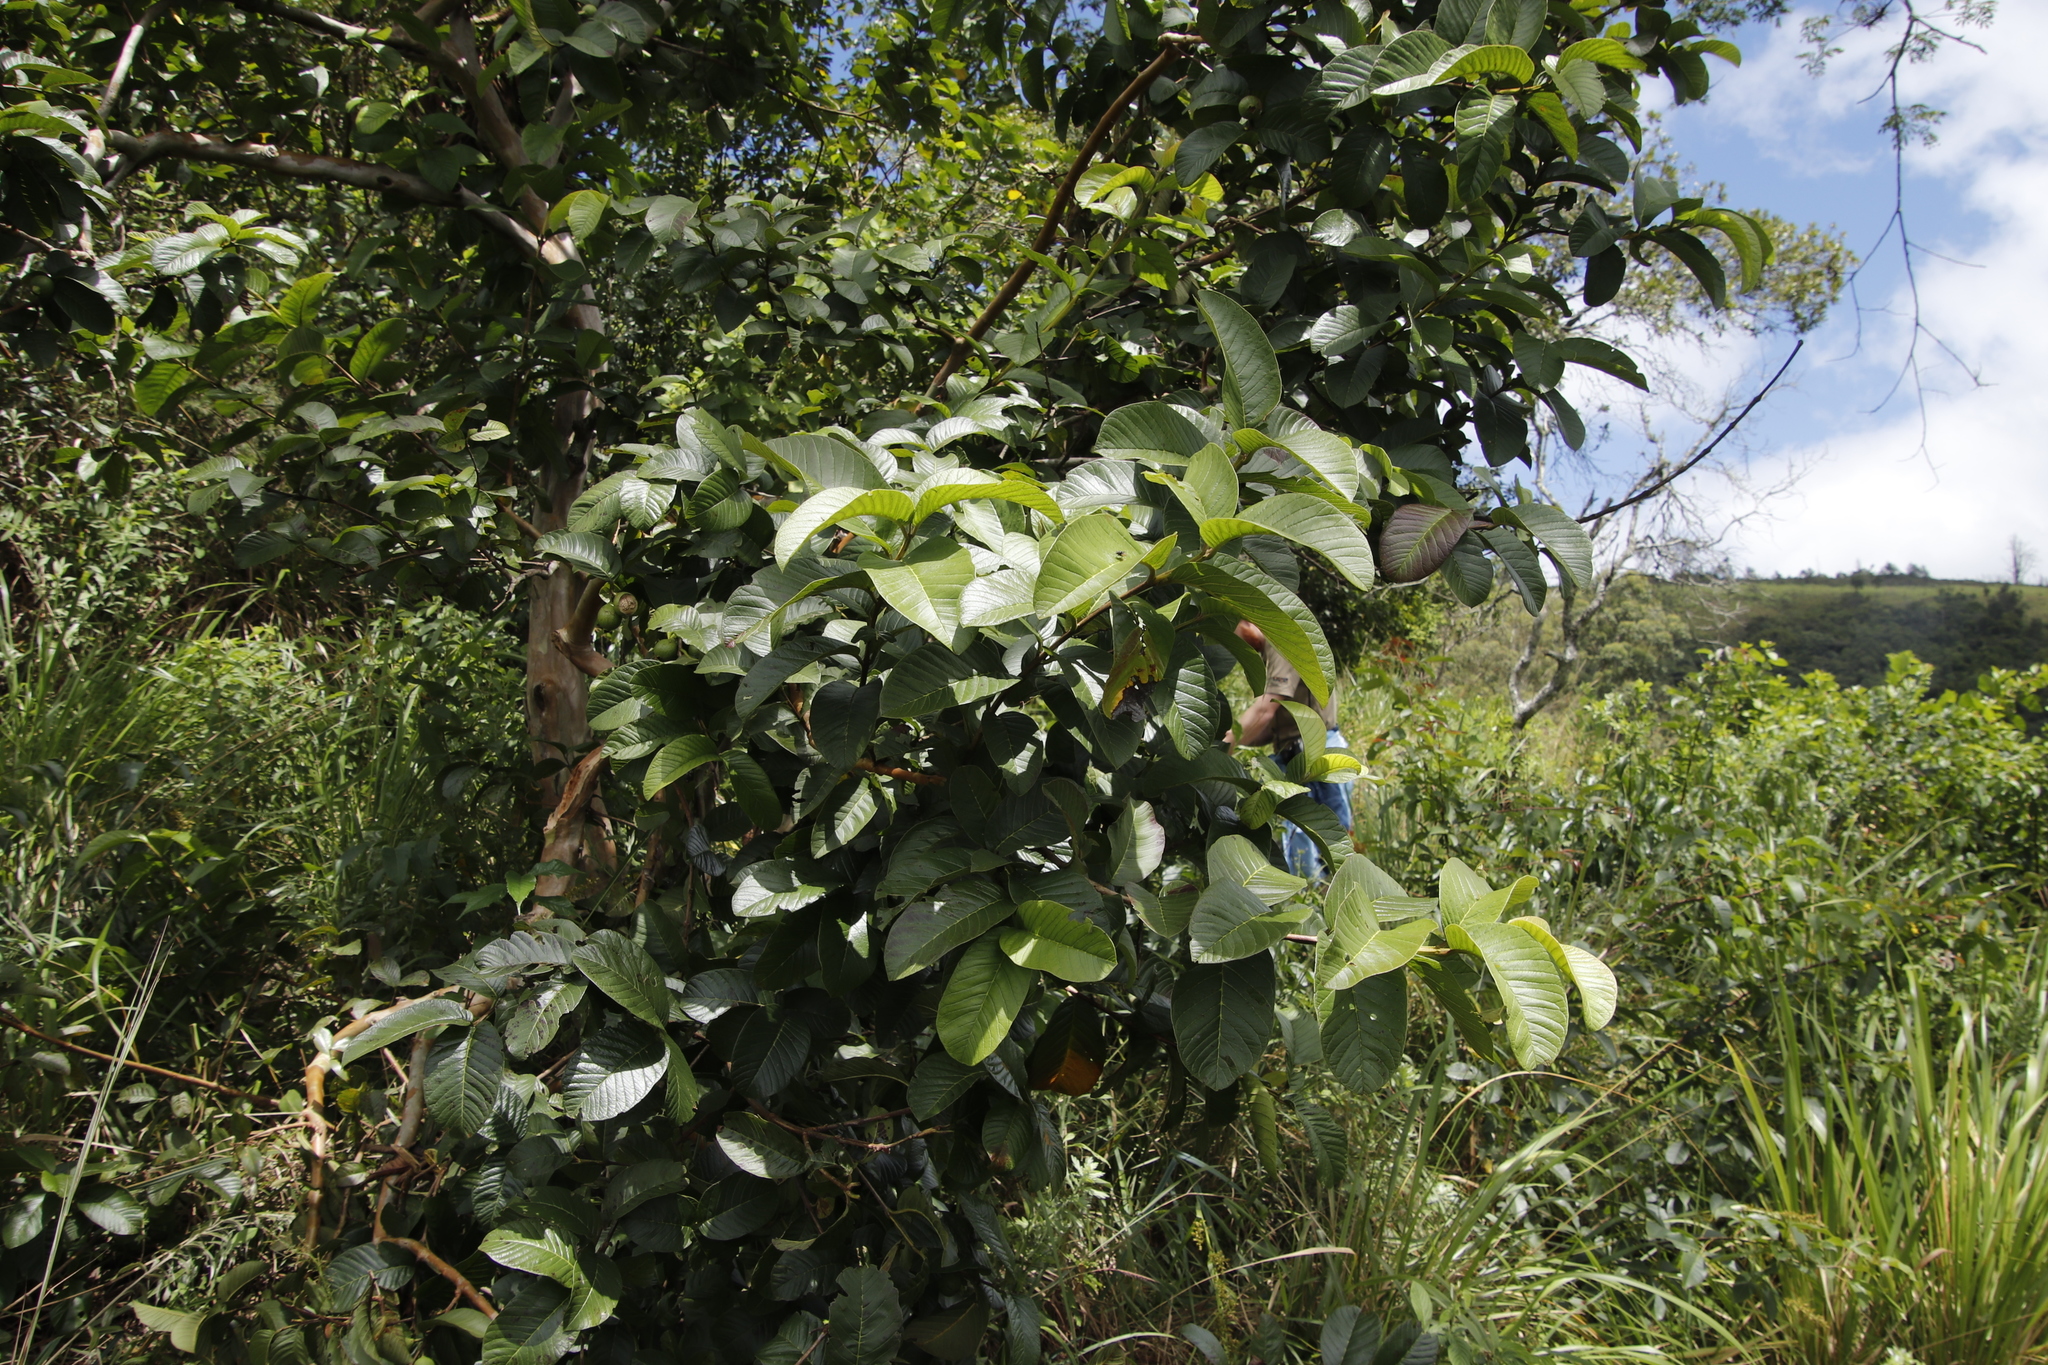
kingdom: Plantae
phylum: Tracheophyta
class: Magnoliopsida
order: Myrtales
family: Myrtaceae
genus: Psidium
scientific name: Psidium guajava
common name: Guava
